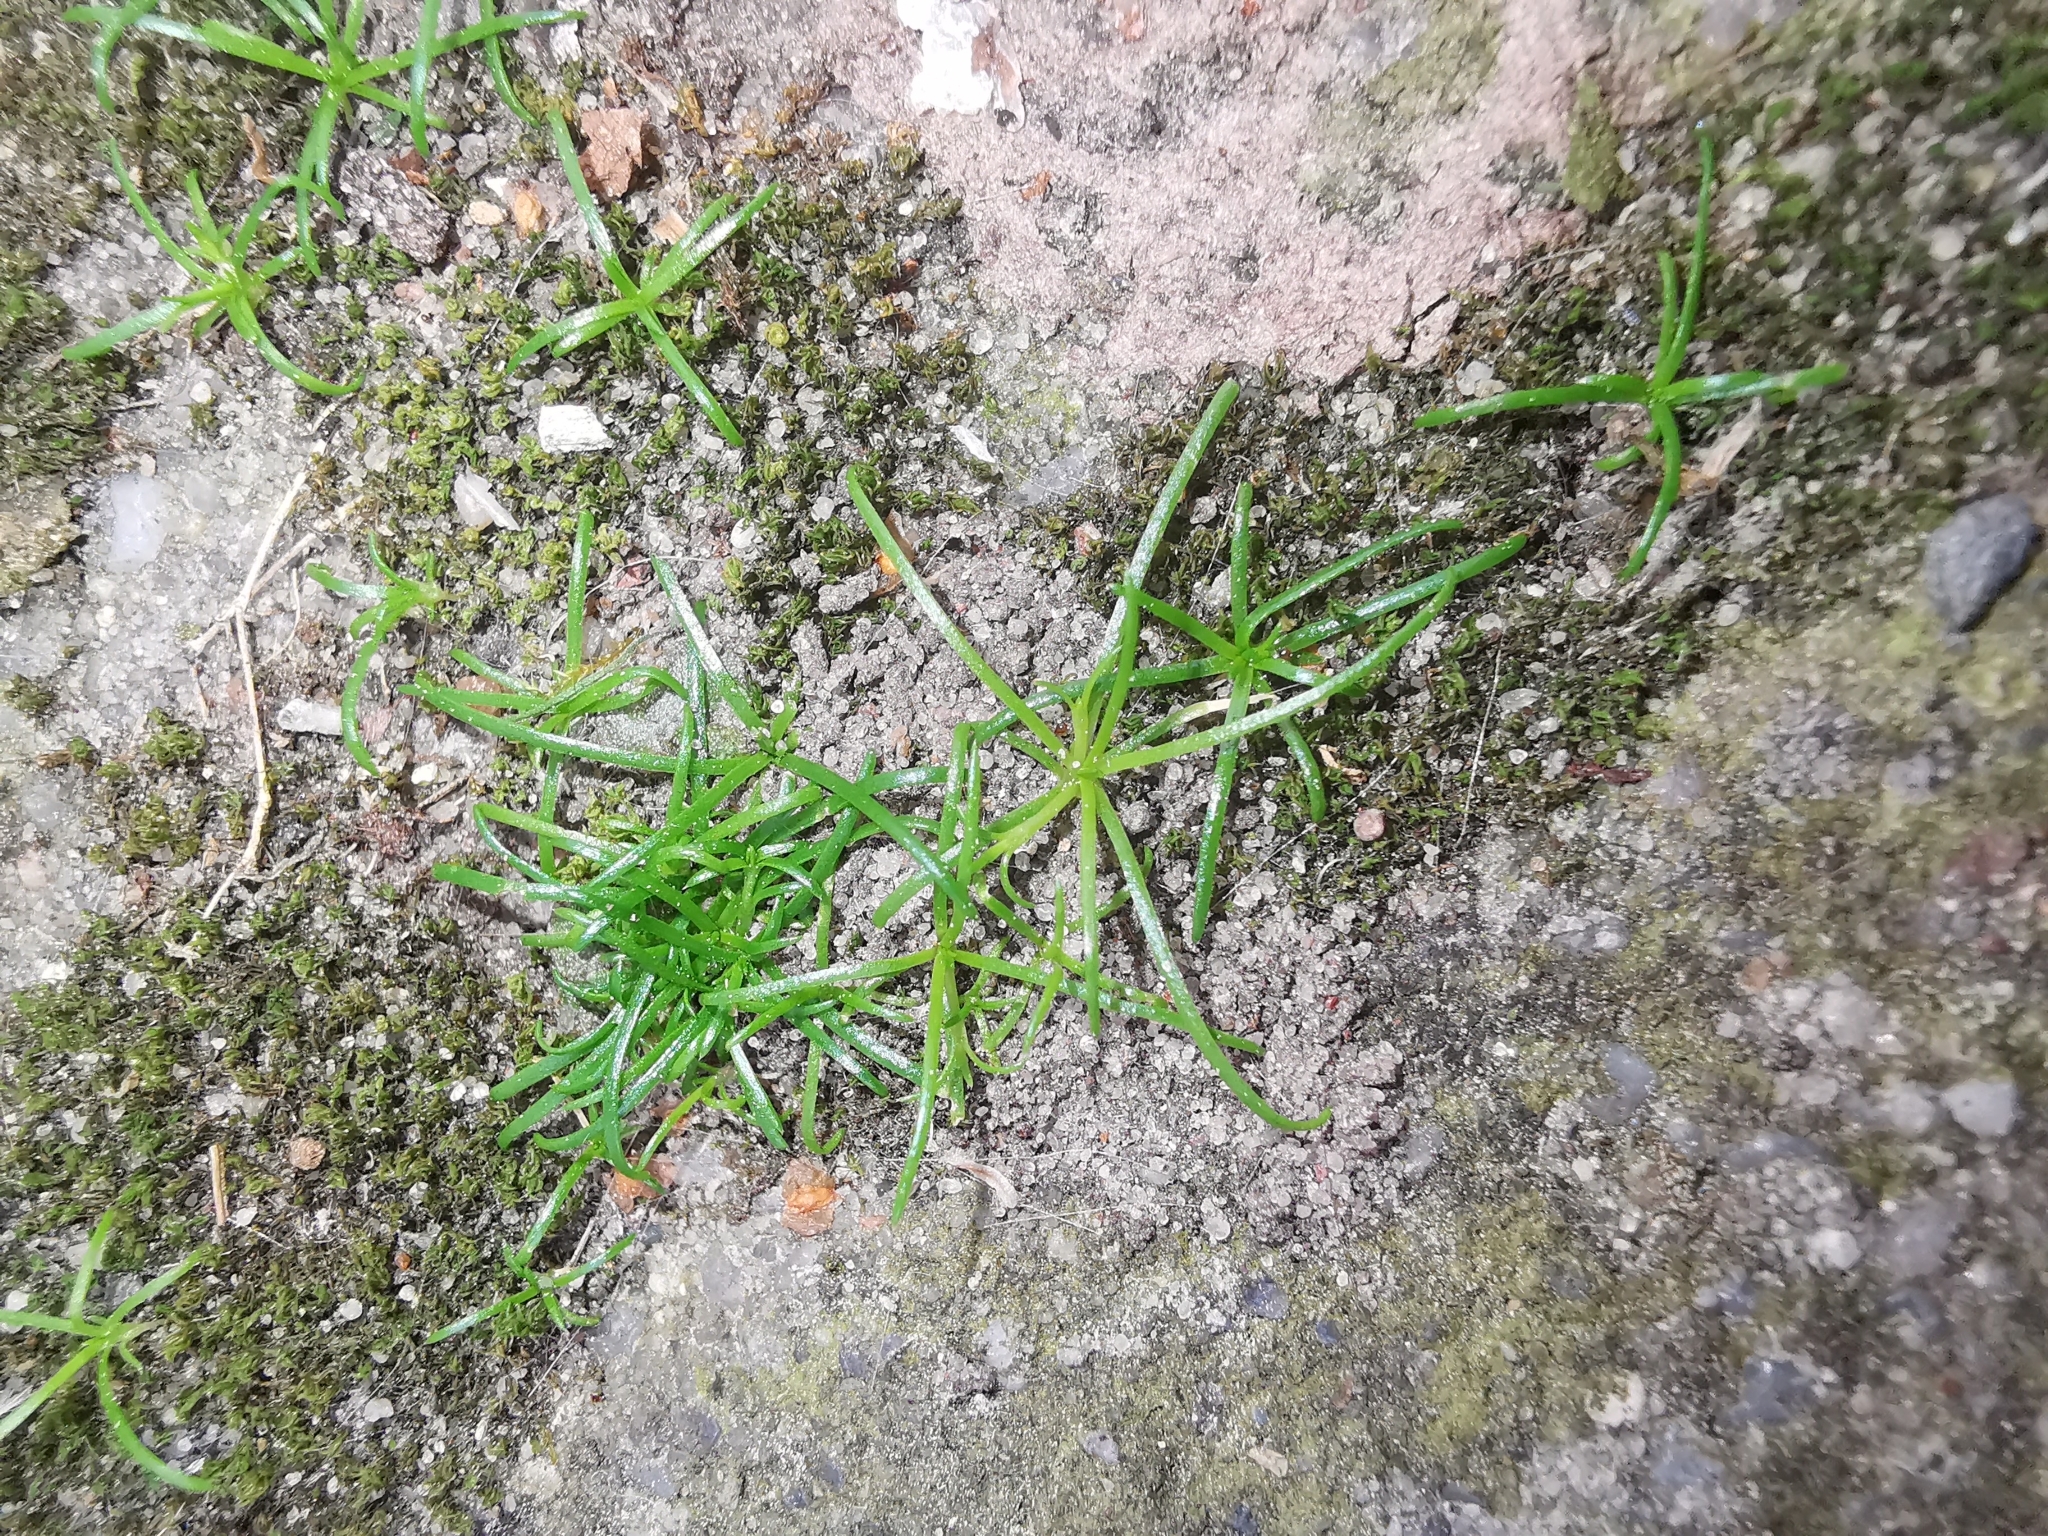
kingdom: Plantae
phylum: Tracheophyta
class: Magnoliopsida
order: Caryophyllales
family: Caryophyllaceae
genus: Sagina
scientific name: Sagina procumbens
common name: Procumbent pearlwort
